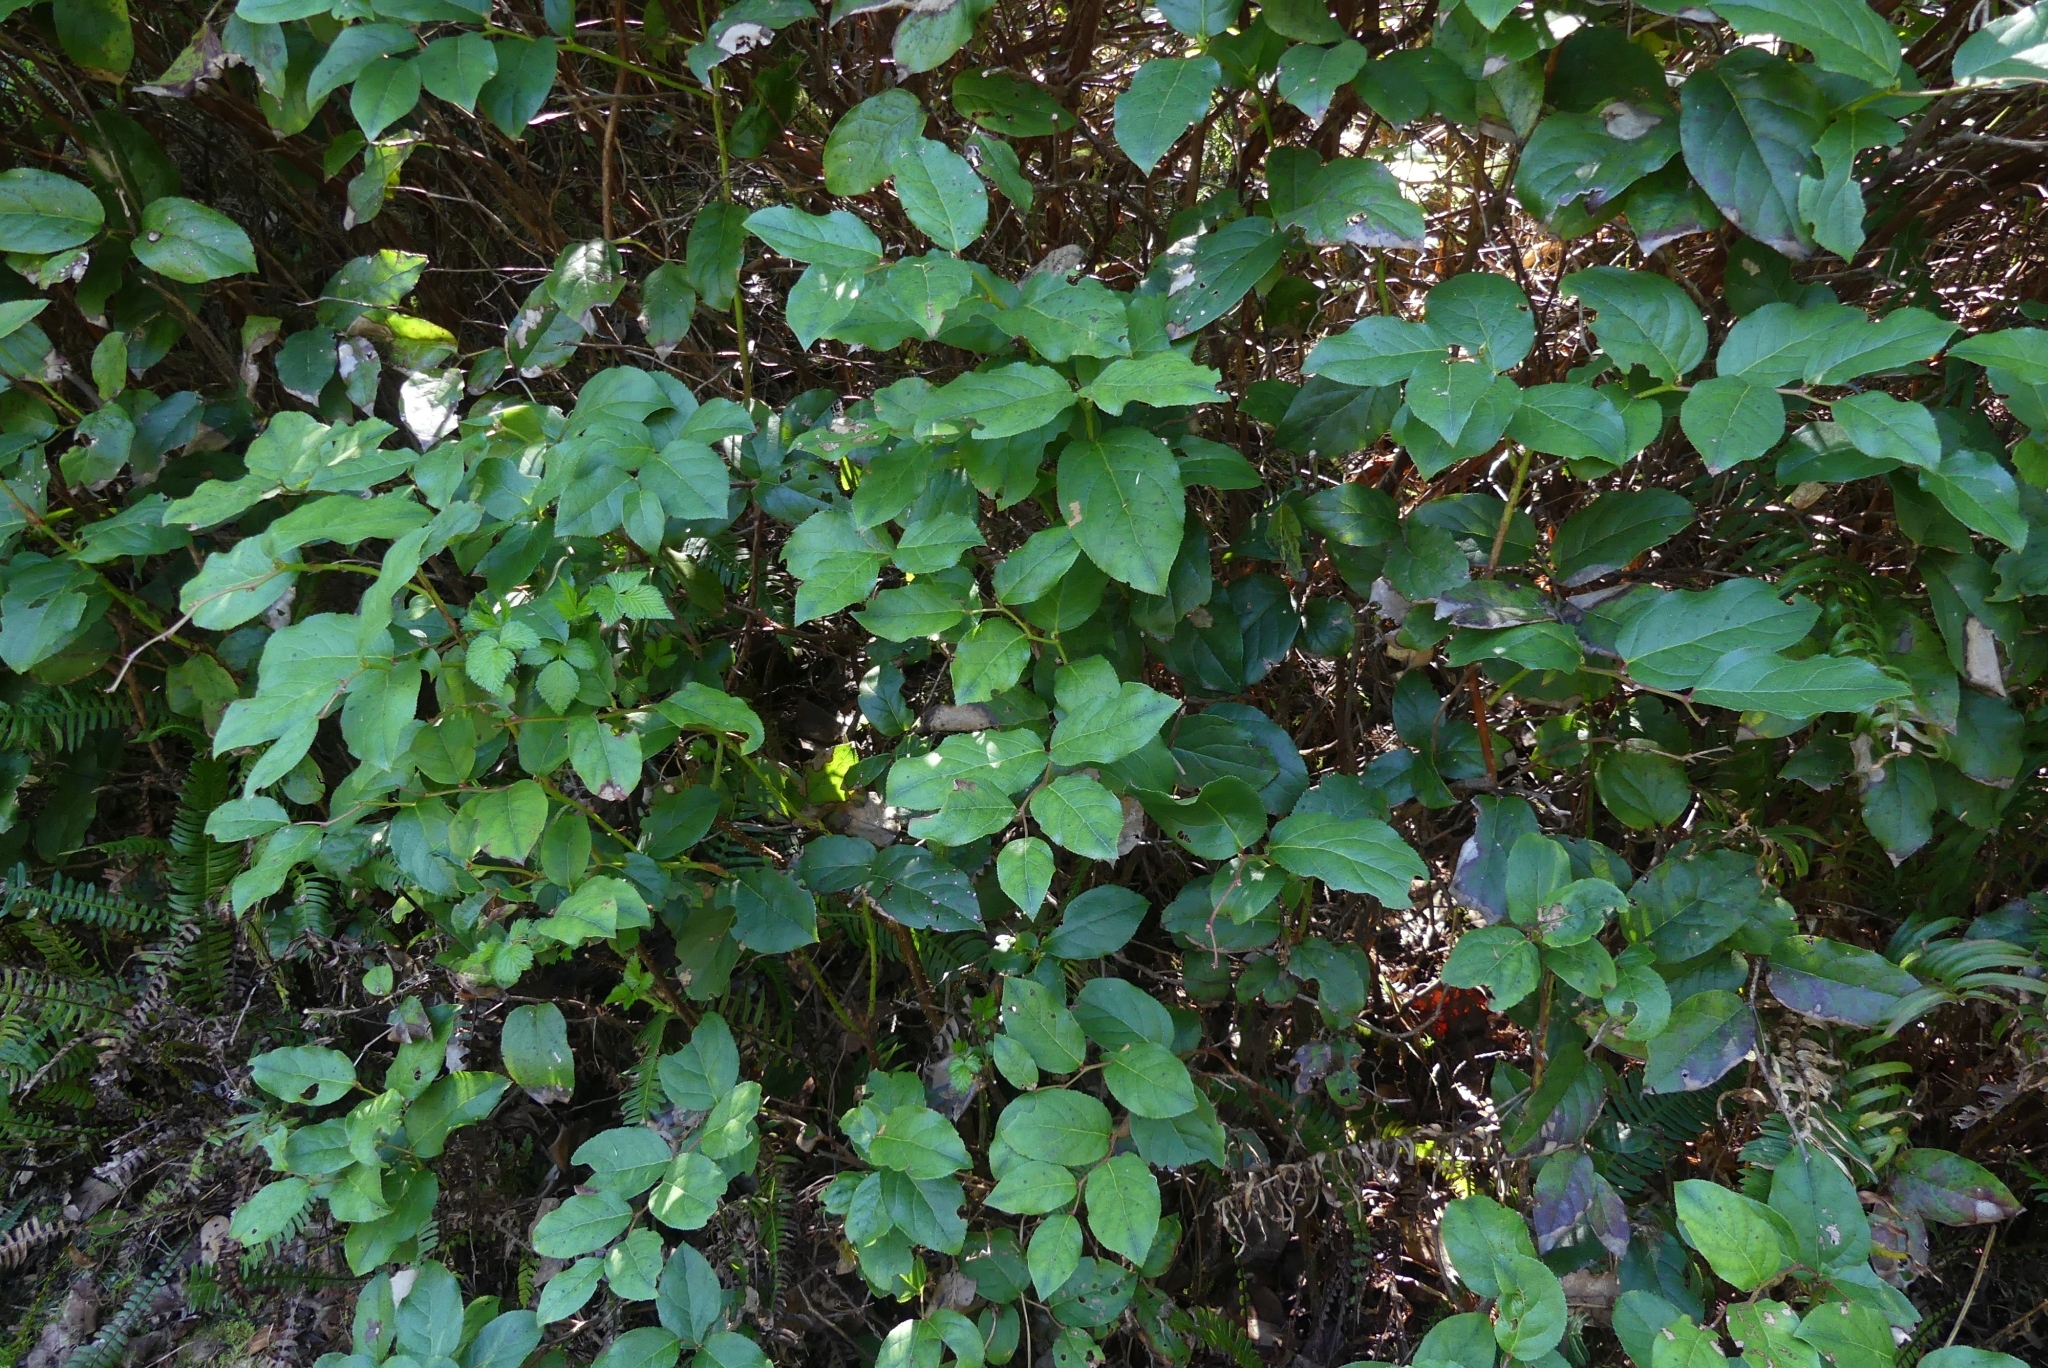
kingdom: Plantae
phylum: Tracheophyta
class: Magnoliopsida
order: Ericales
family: Ericaceae
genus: Gaultheria
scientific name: Gaultheria shallon
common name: Shallon
